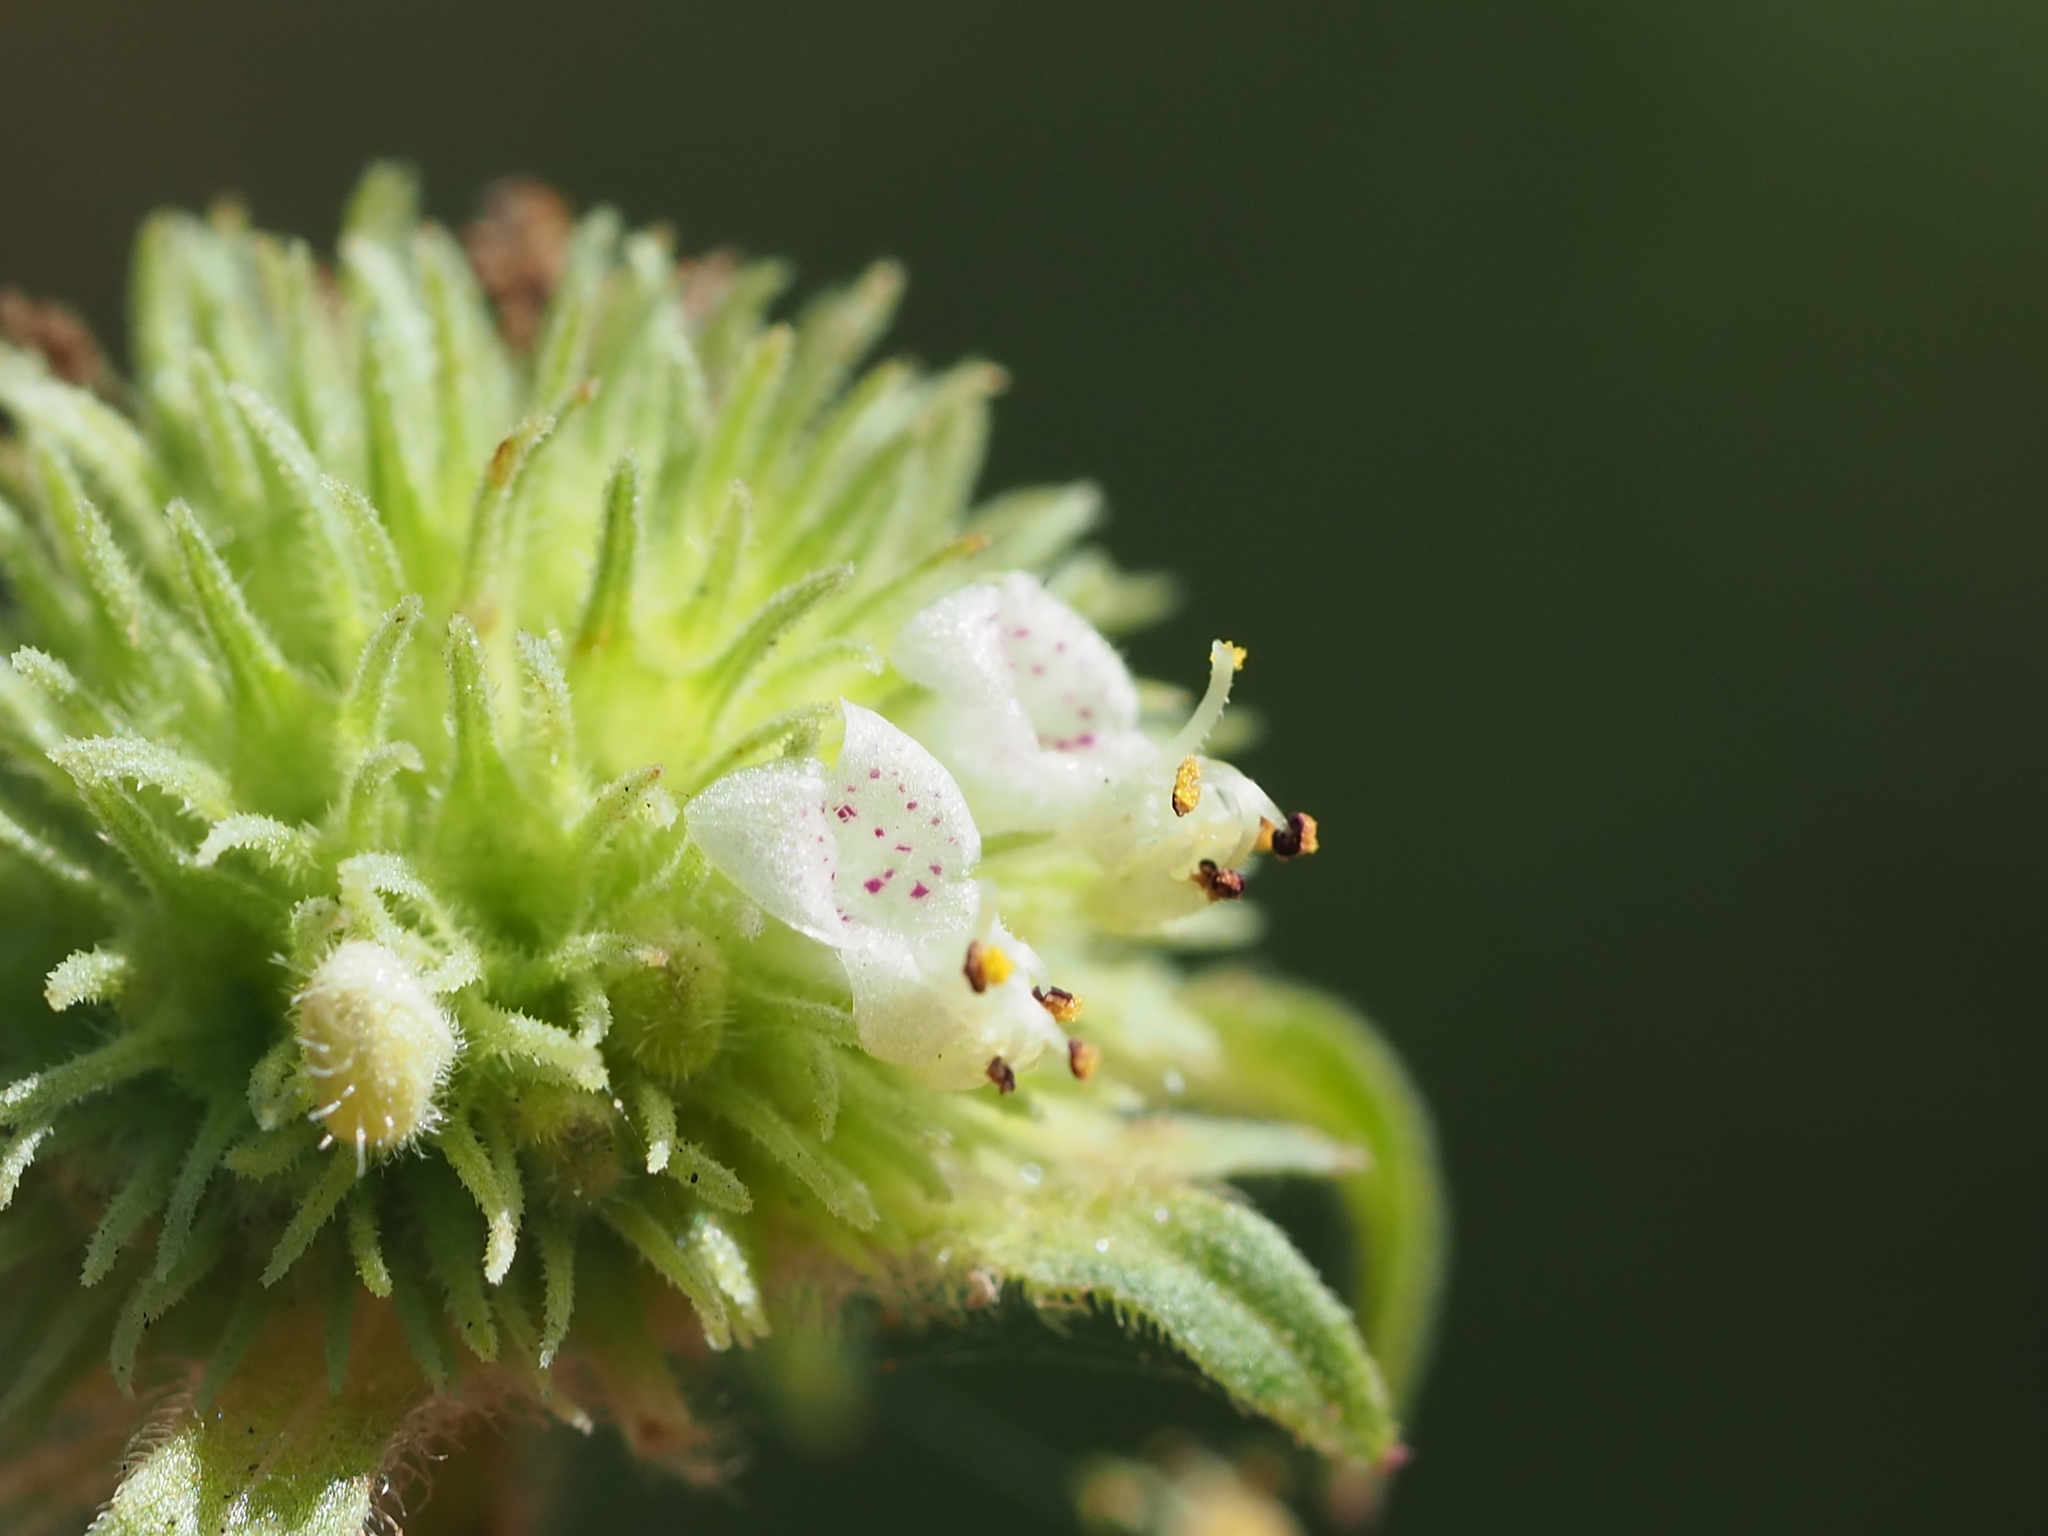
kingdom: Plantae
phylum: Tracheophyta
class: Magnoliopsida
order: Lamiales
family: Lamiaceae
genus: Hyptis
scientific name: Hyptis capitata
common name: False ironwort
